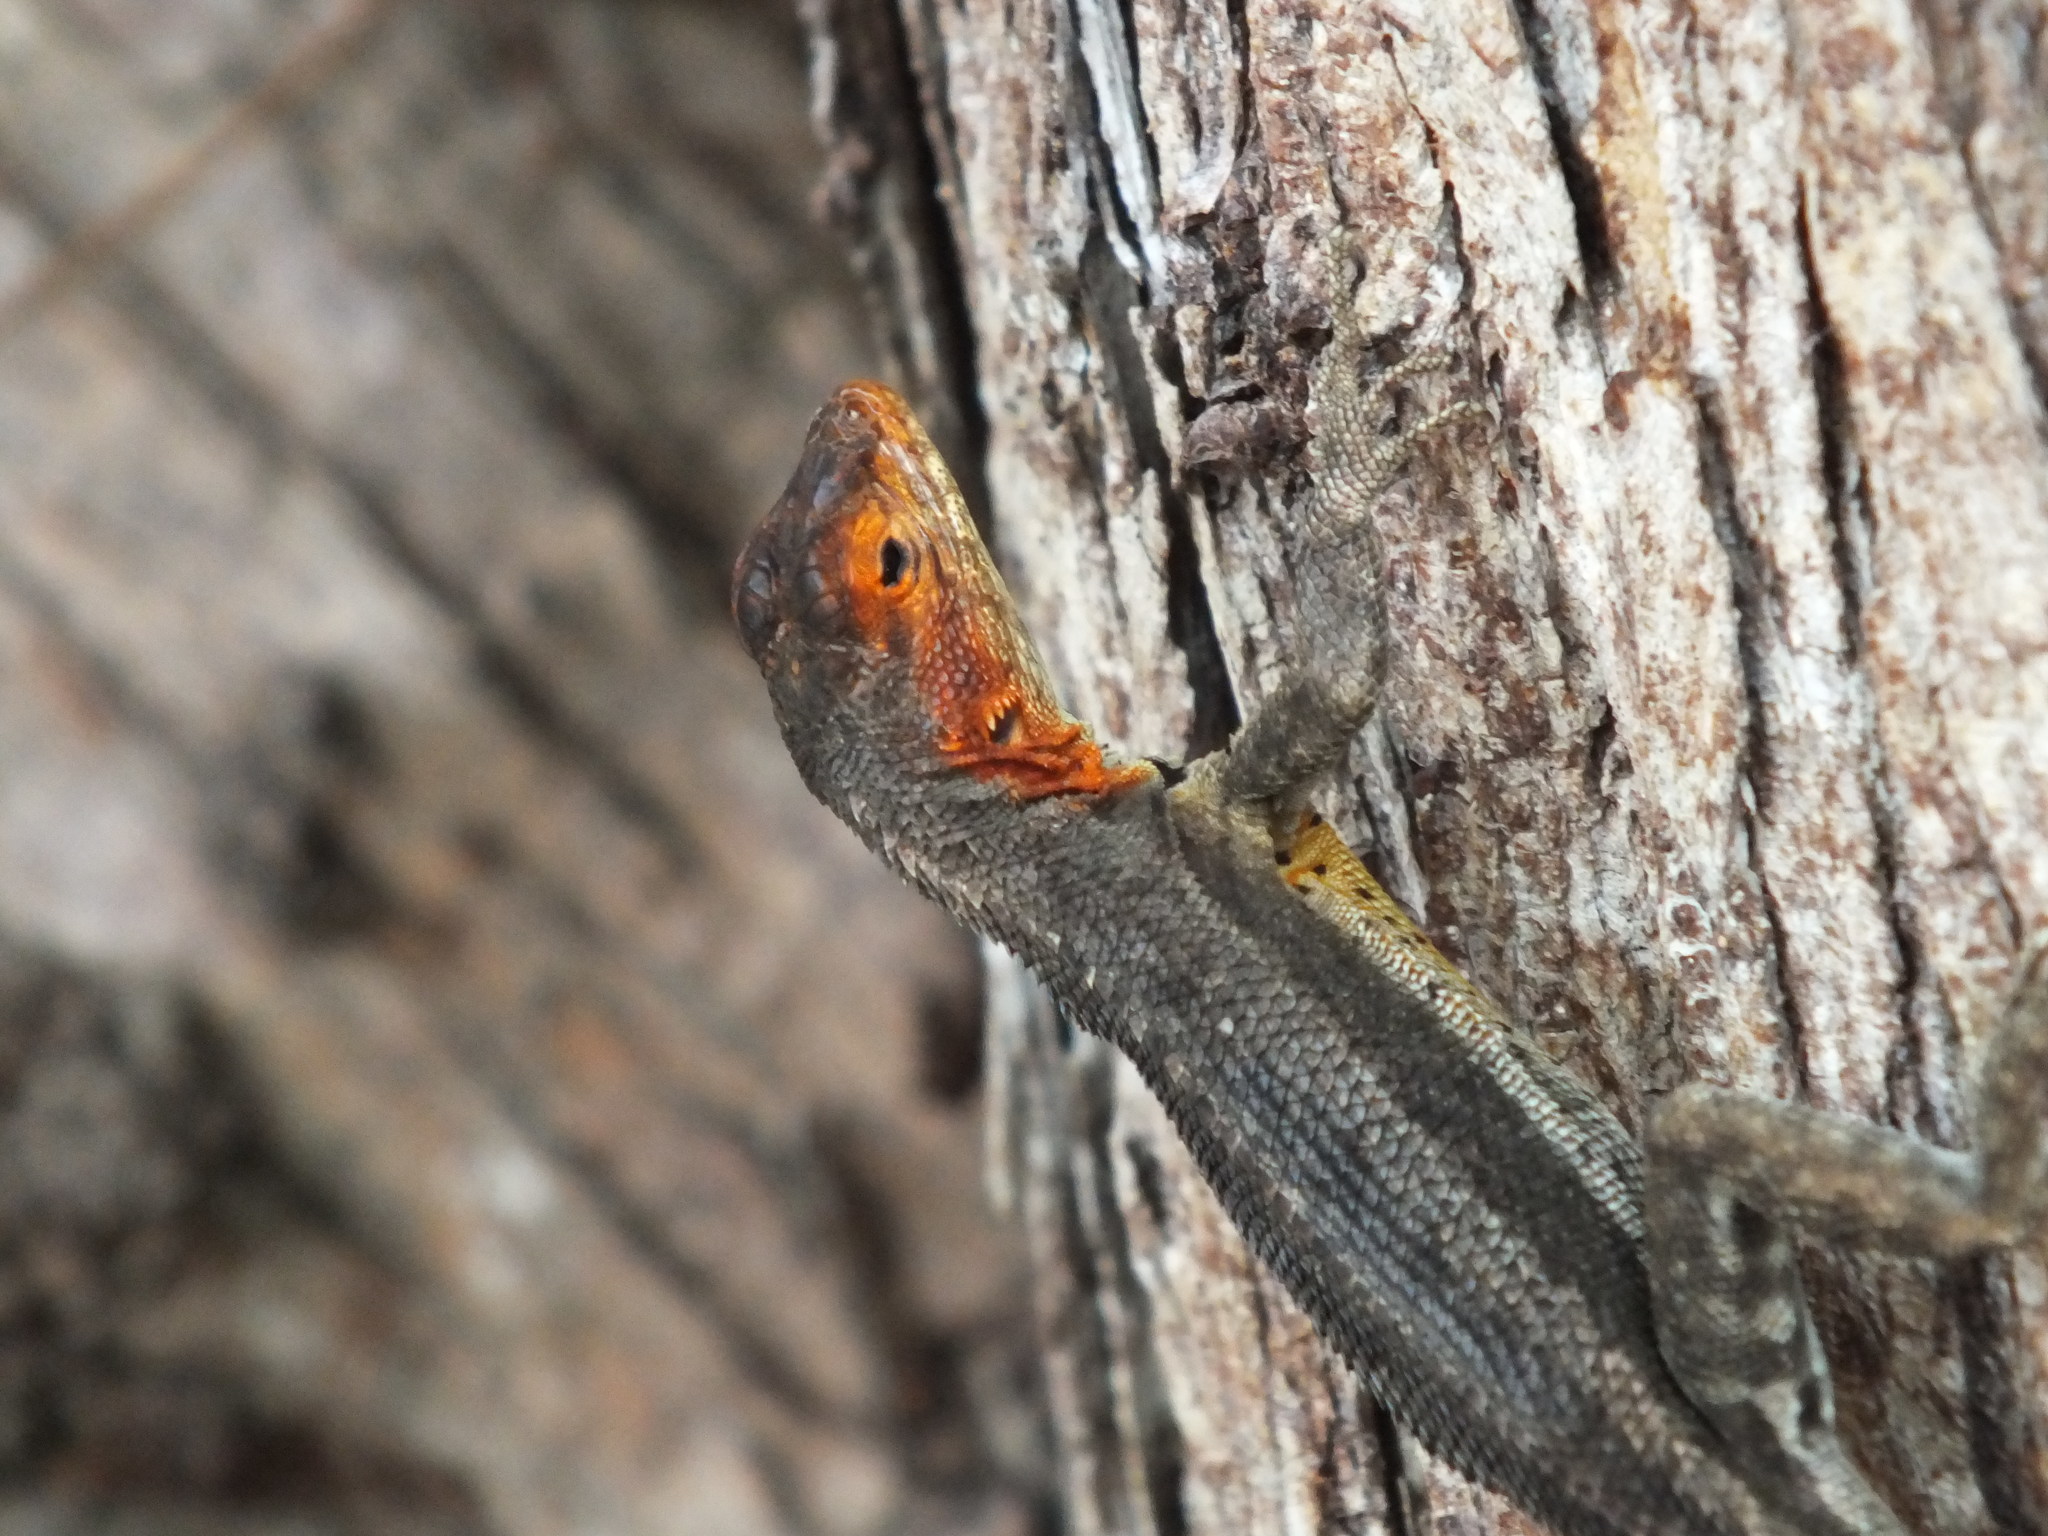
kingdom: Animalia
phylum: Chordata
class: Squamata
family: Tropiduridae
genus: Microlophus
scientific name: Microlophus albemarlensis
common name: Galapagos lava lizard
